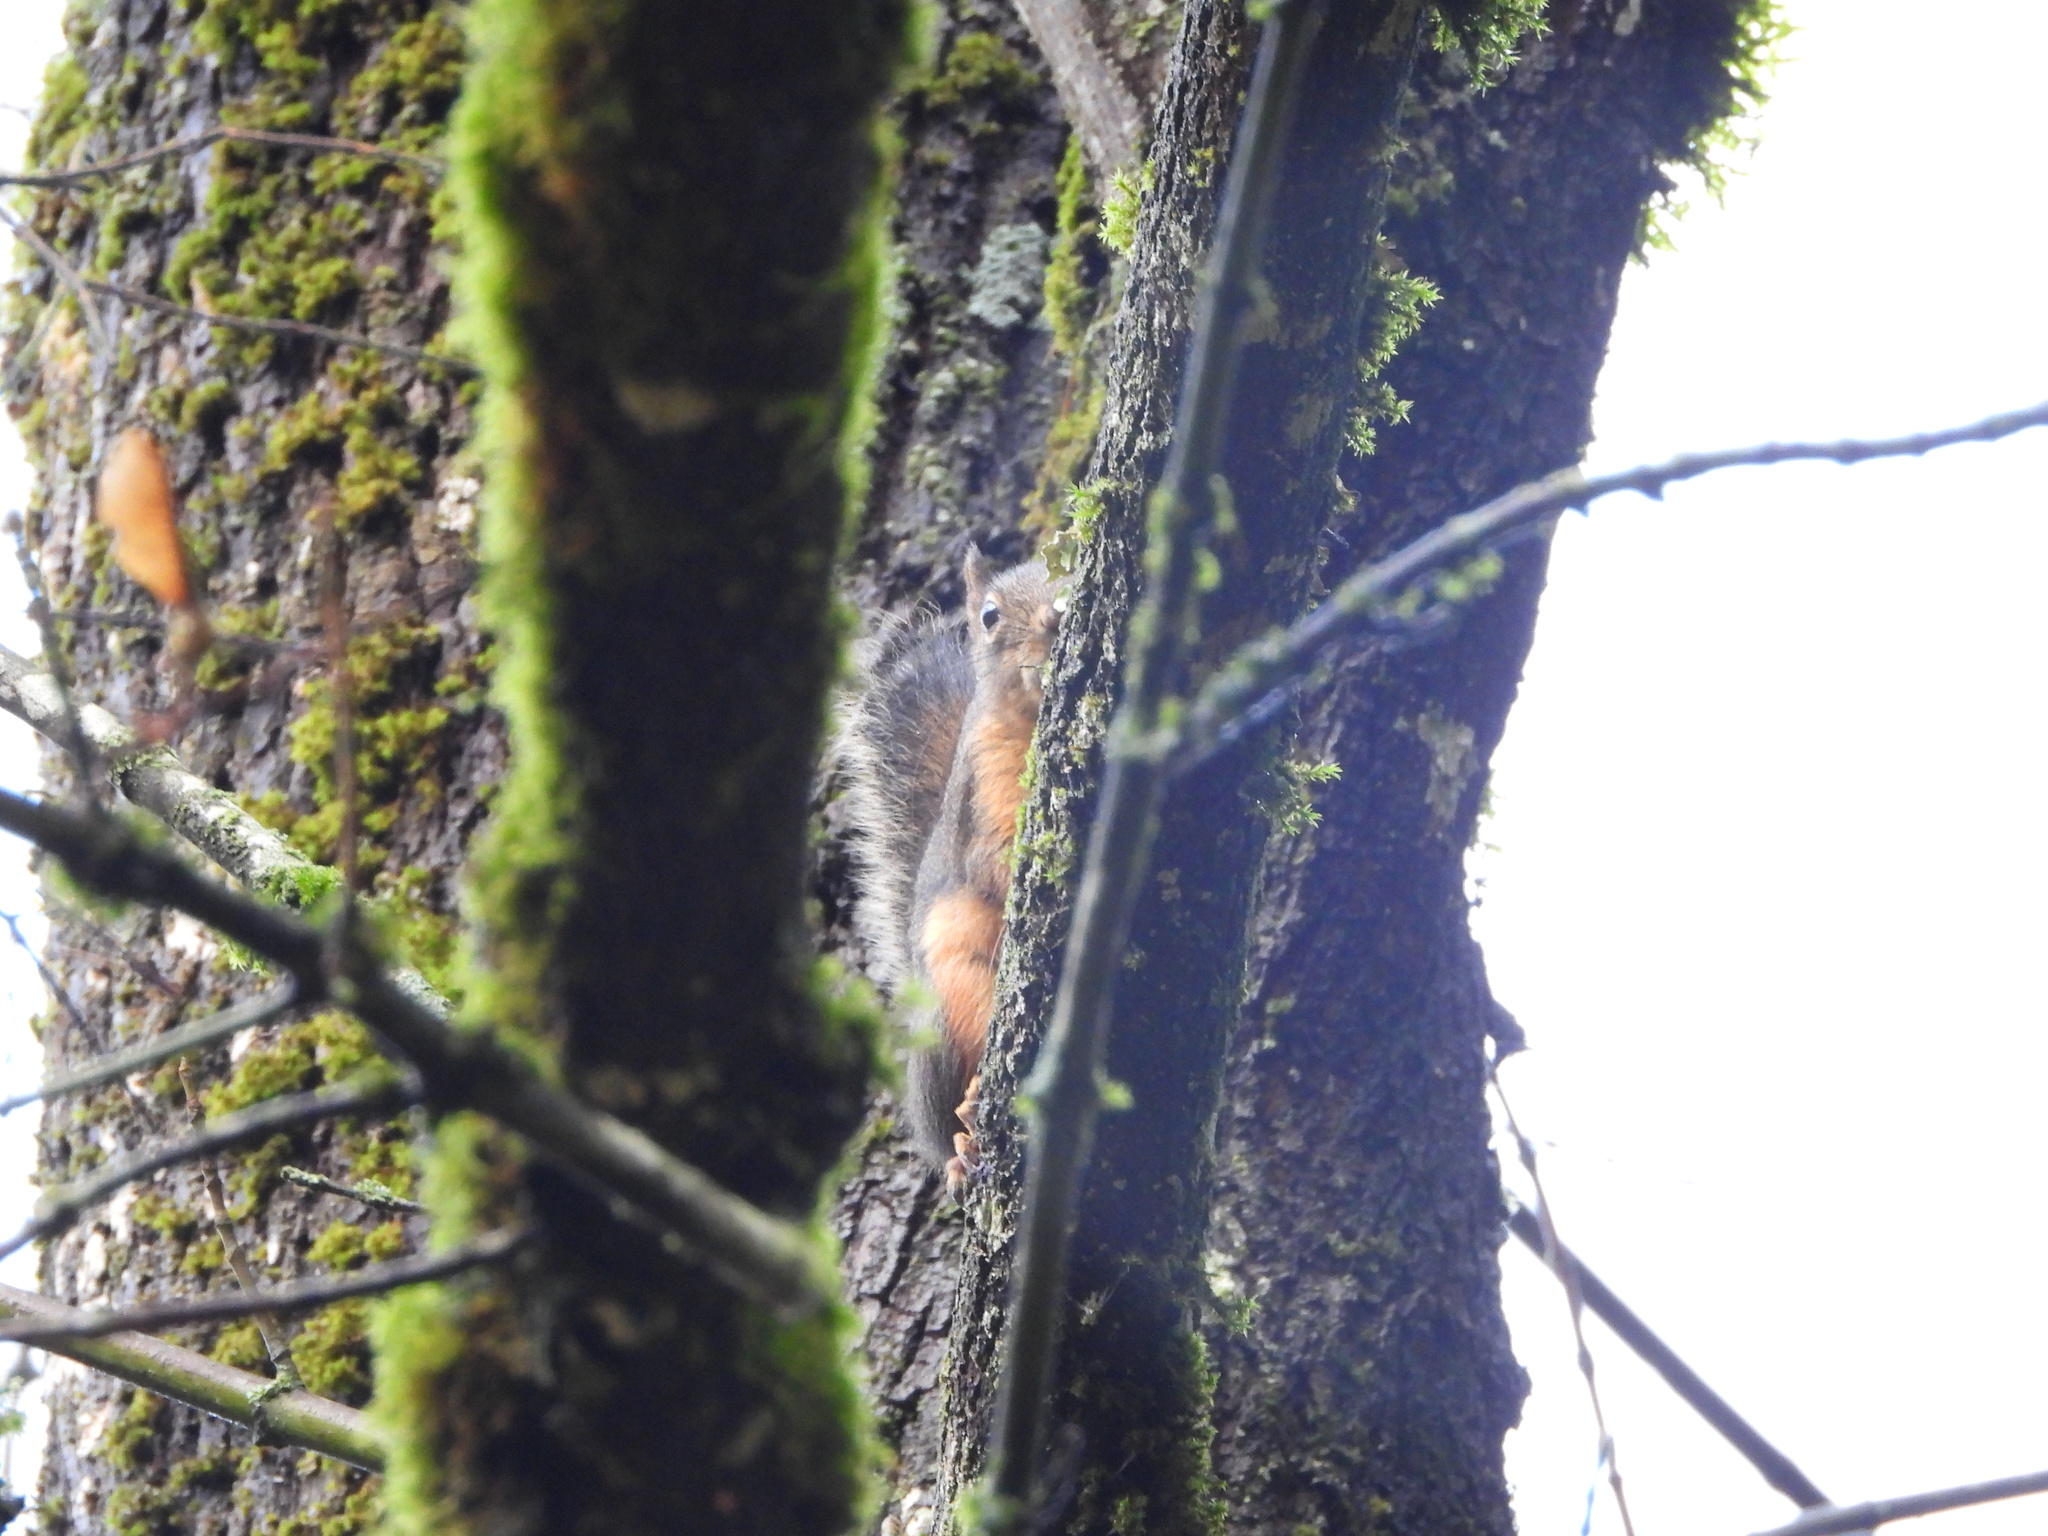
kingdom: Animalia
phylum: Chordata
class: Mammalia
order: Rodentia
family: Sciuridae
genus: Tamiasciurus
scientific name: Tamiasciurus douglasii
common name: Douglas's squirrel
